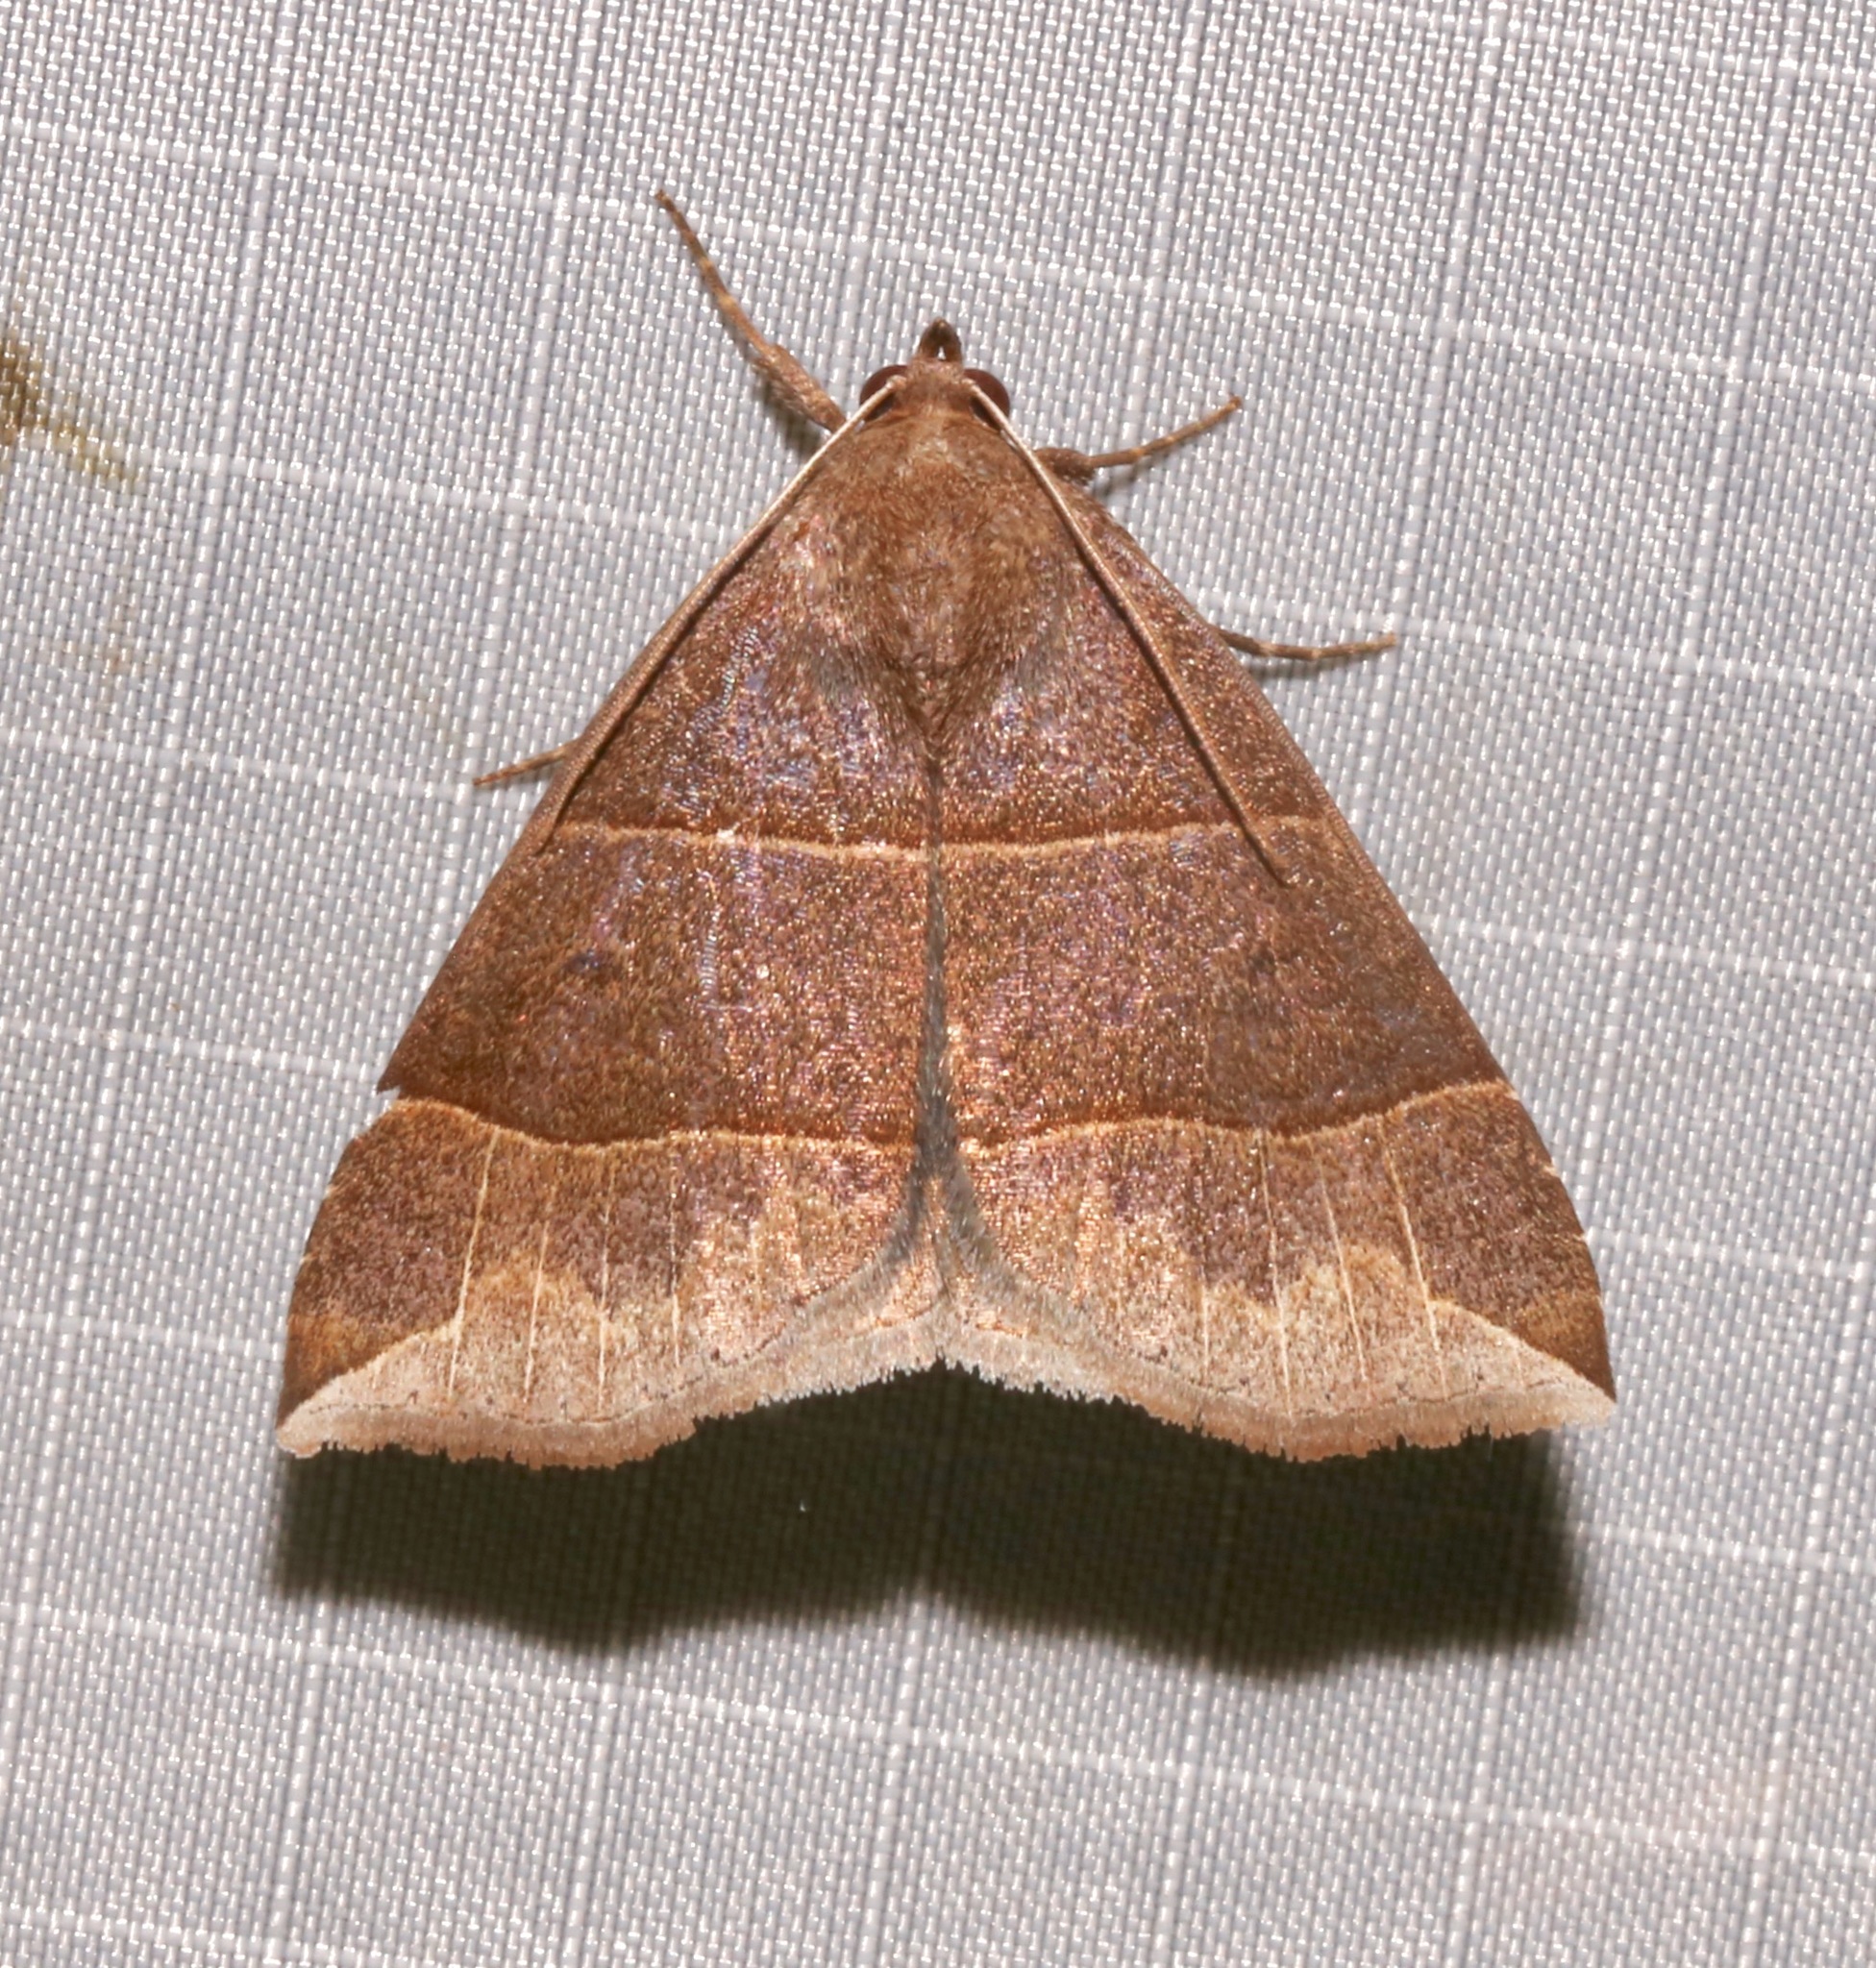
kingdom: Animalia
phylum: Arthropoda
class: Insecta
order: Lepidoptera
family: Erebidae
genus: Parallelia
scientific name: Parallelia bistriaris
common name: Maple looper moth
